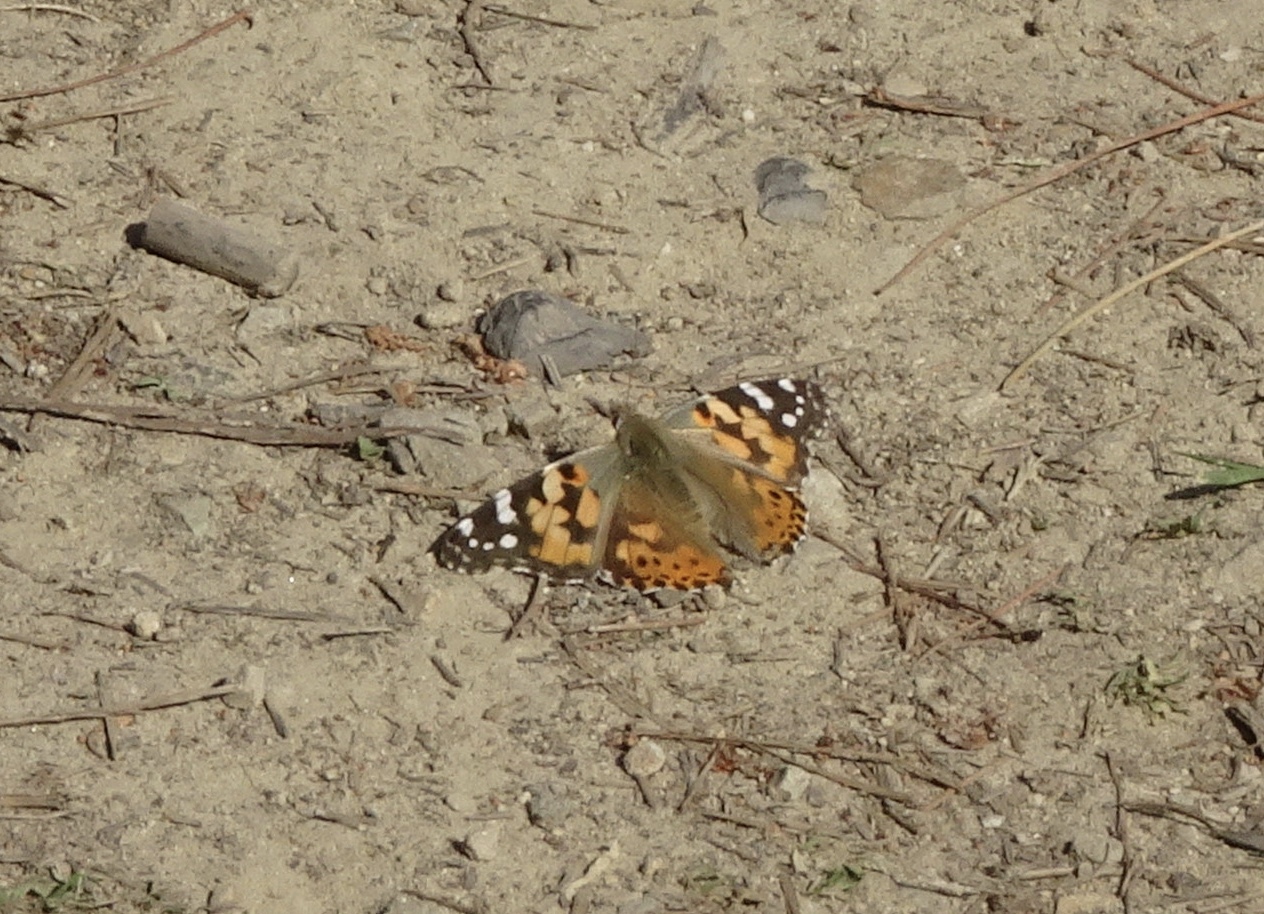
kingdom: Animalia
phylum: Arthropoda
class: Insecta
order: Lepidoptera
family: Nymphalidae
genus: Vanessa
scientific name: Vanessa cardui
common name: Painted lady
